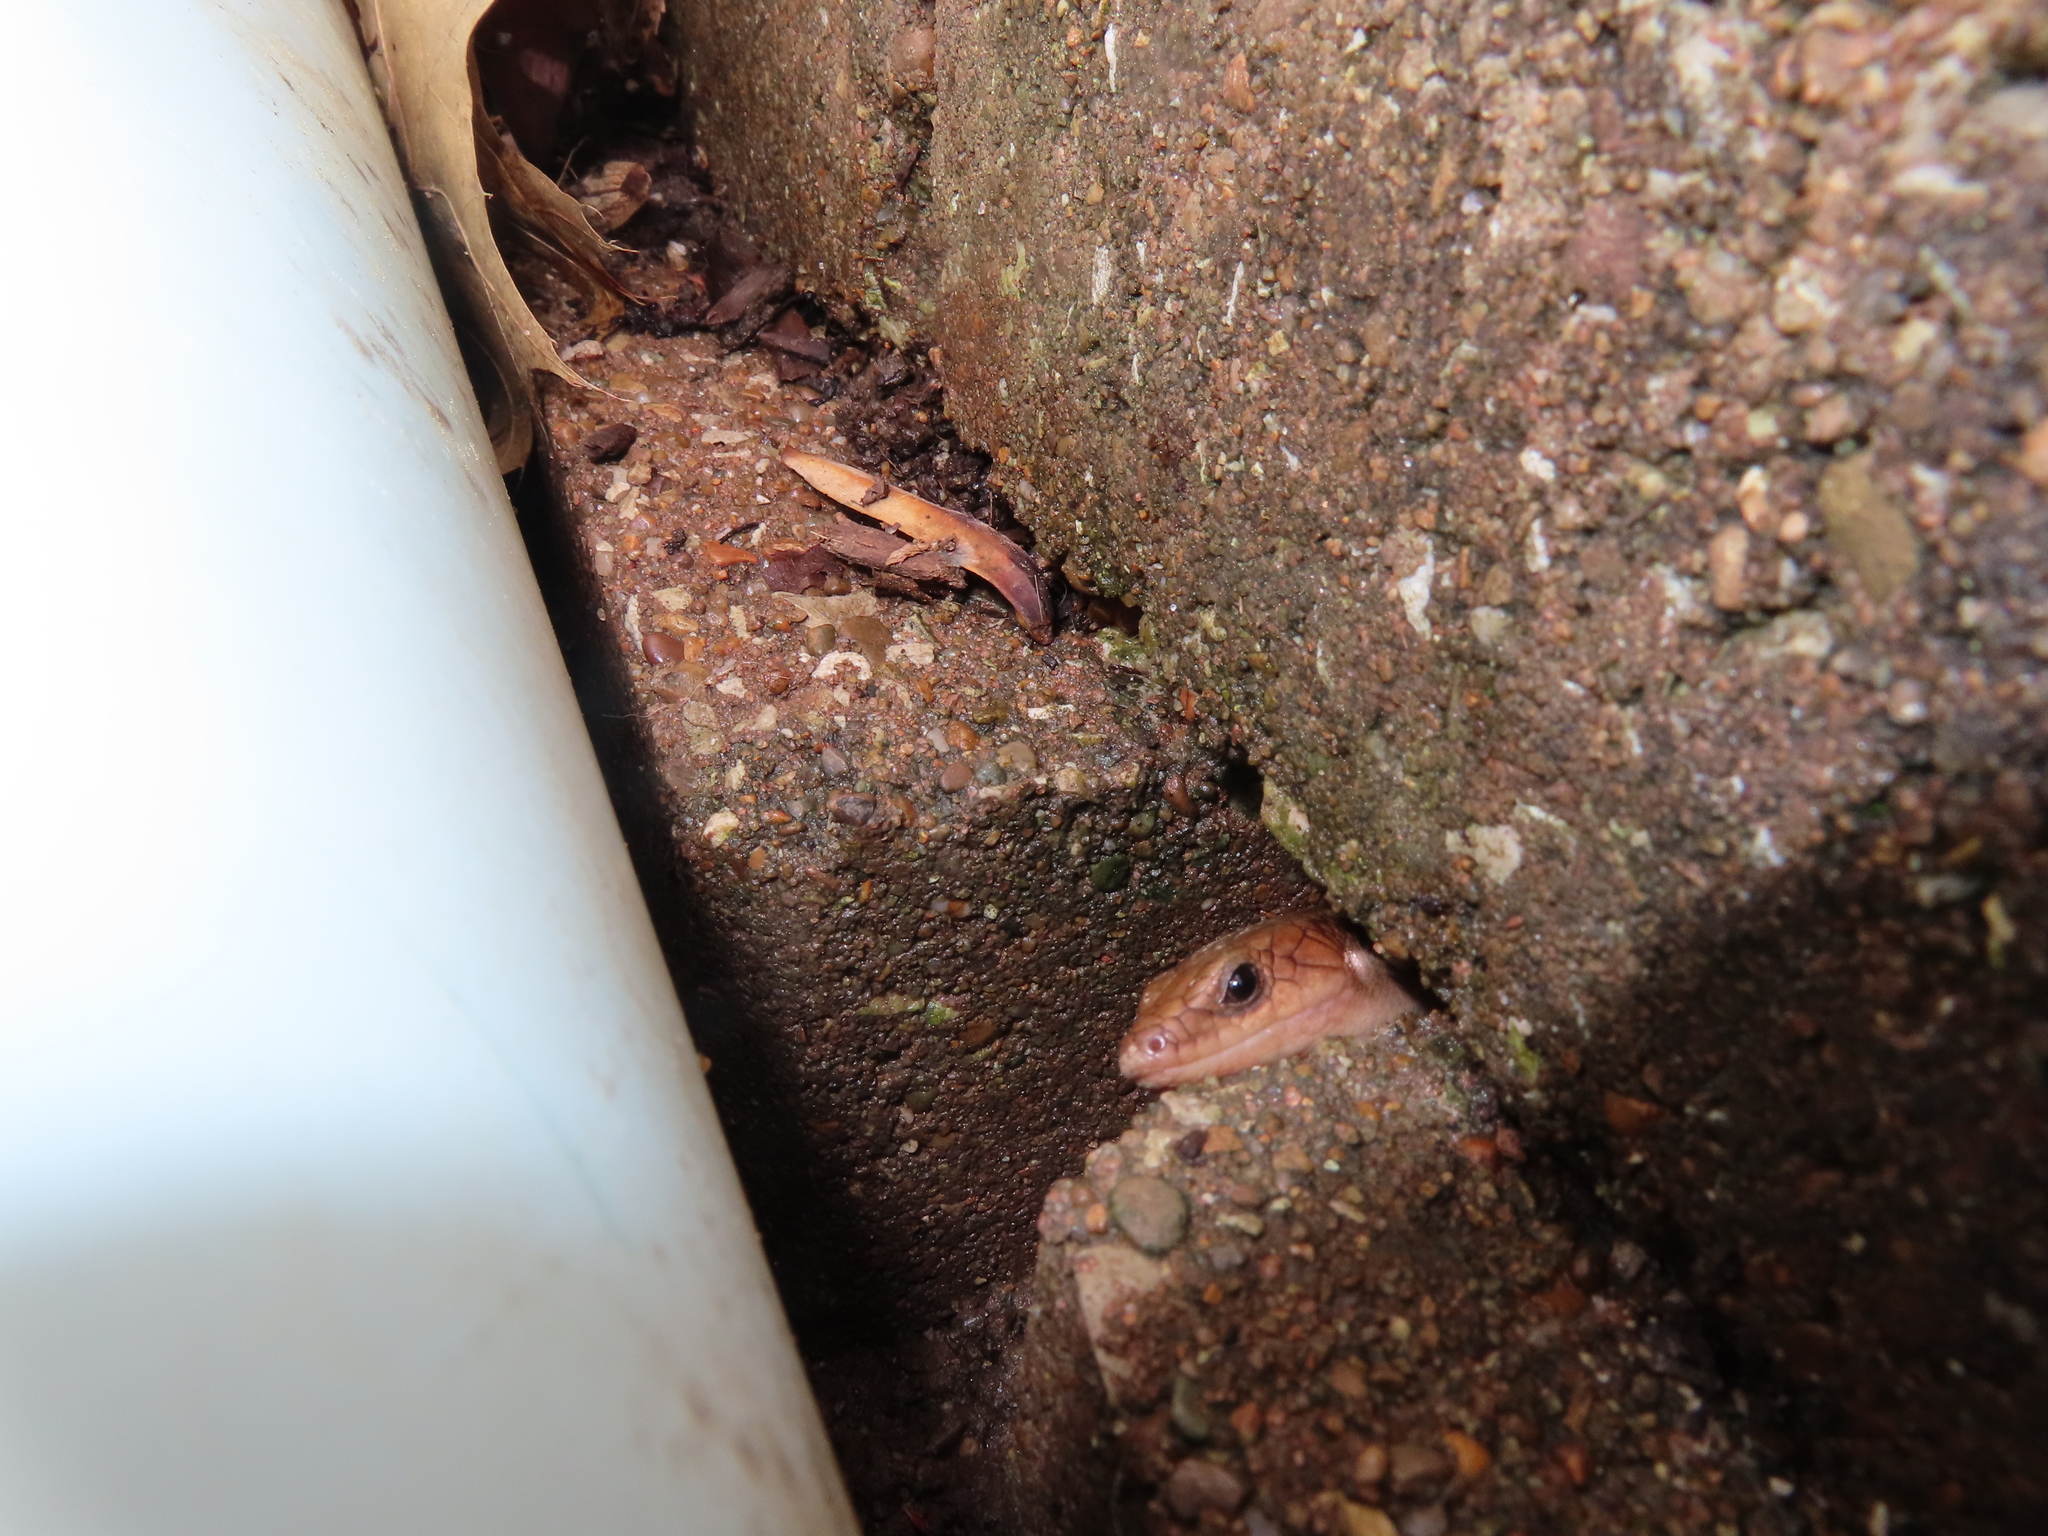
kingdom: Animalia
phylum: Chordata
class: Squamata
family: Scincidae
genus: Plestiodon
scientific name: Plestiodon fasciatus
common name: Five-lined skink
